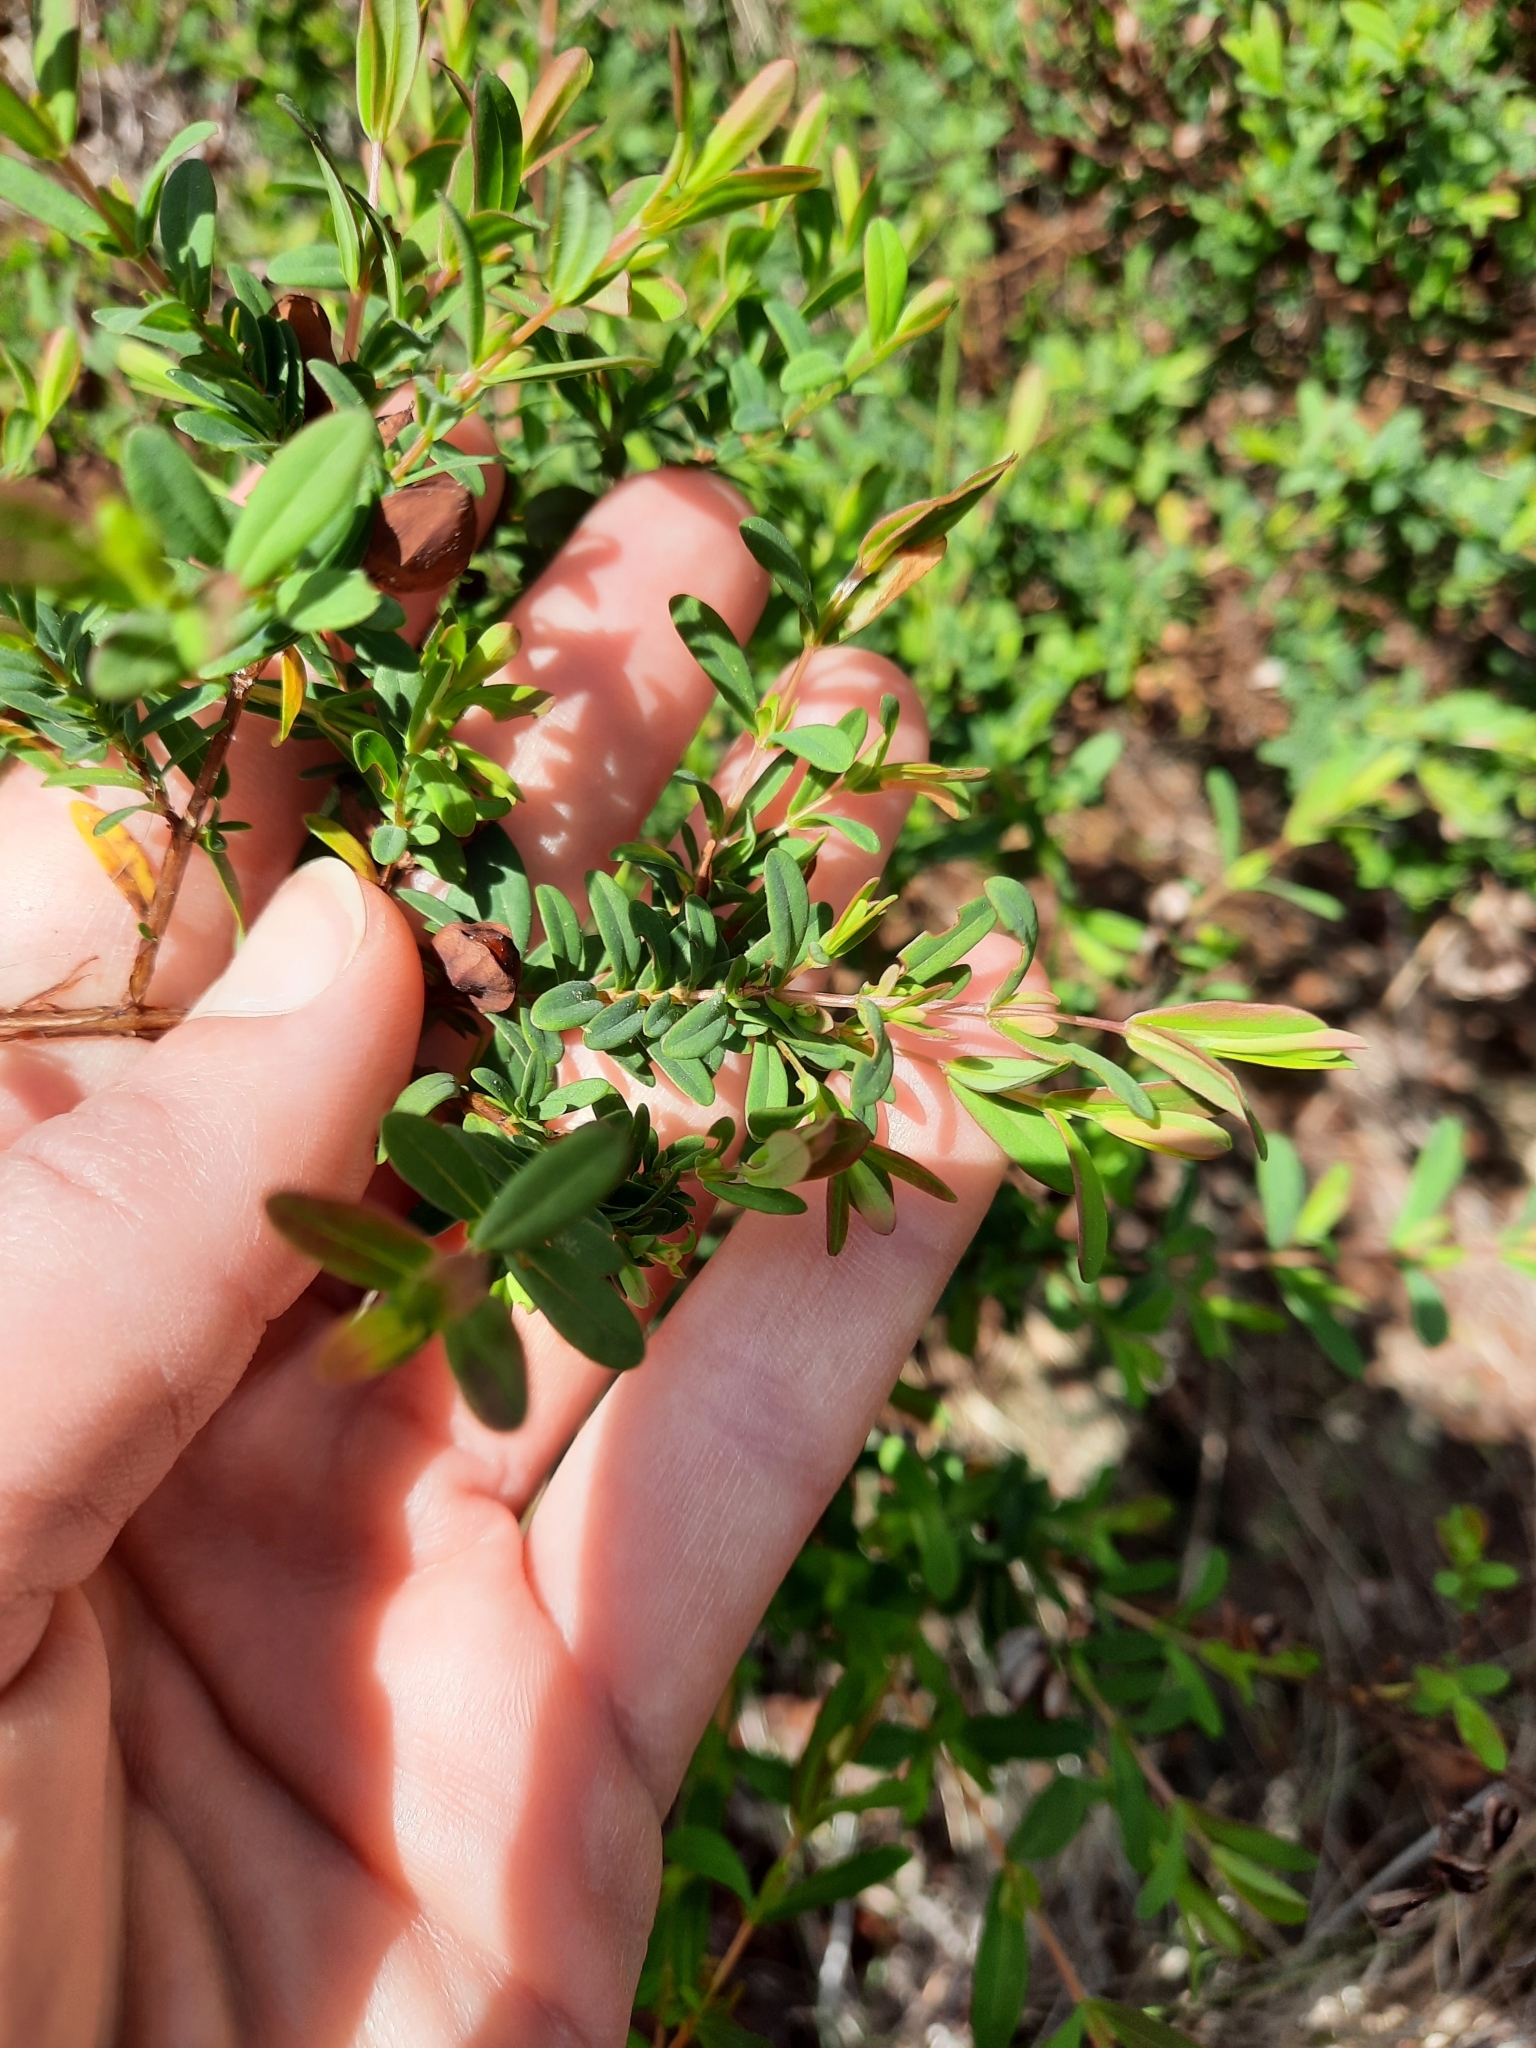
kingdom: Plantae
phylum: Tracheophyta
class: Magnoliopsida
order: Malpighiales
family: Hypericaceae
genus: Hypericum
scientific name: Hypericum hypericoides
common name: St. andrew's cross
